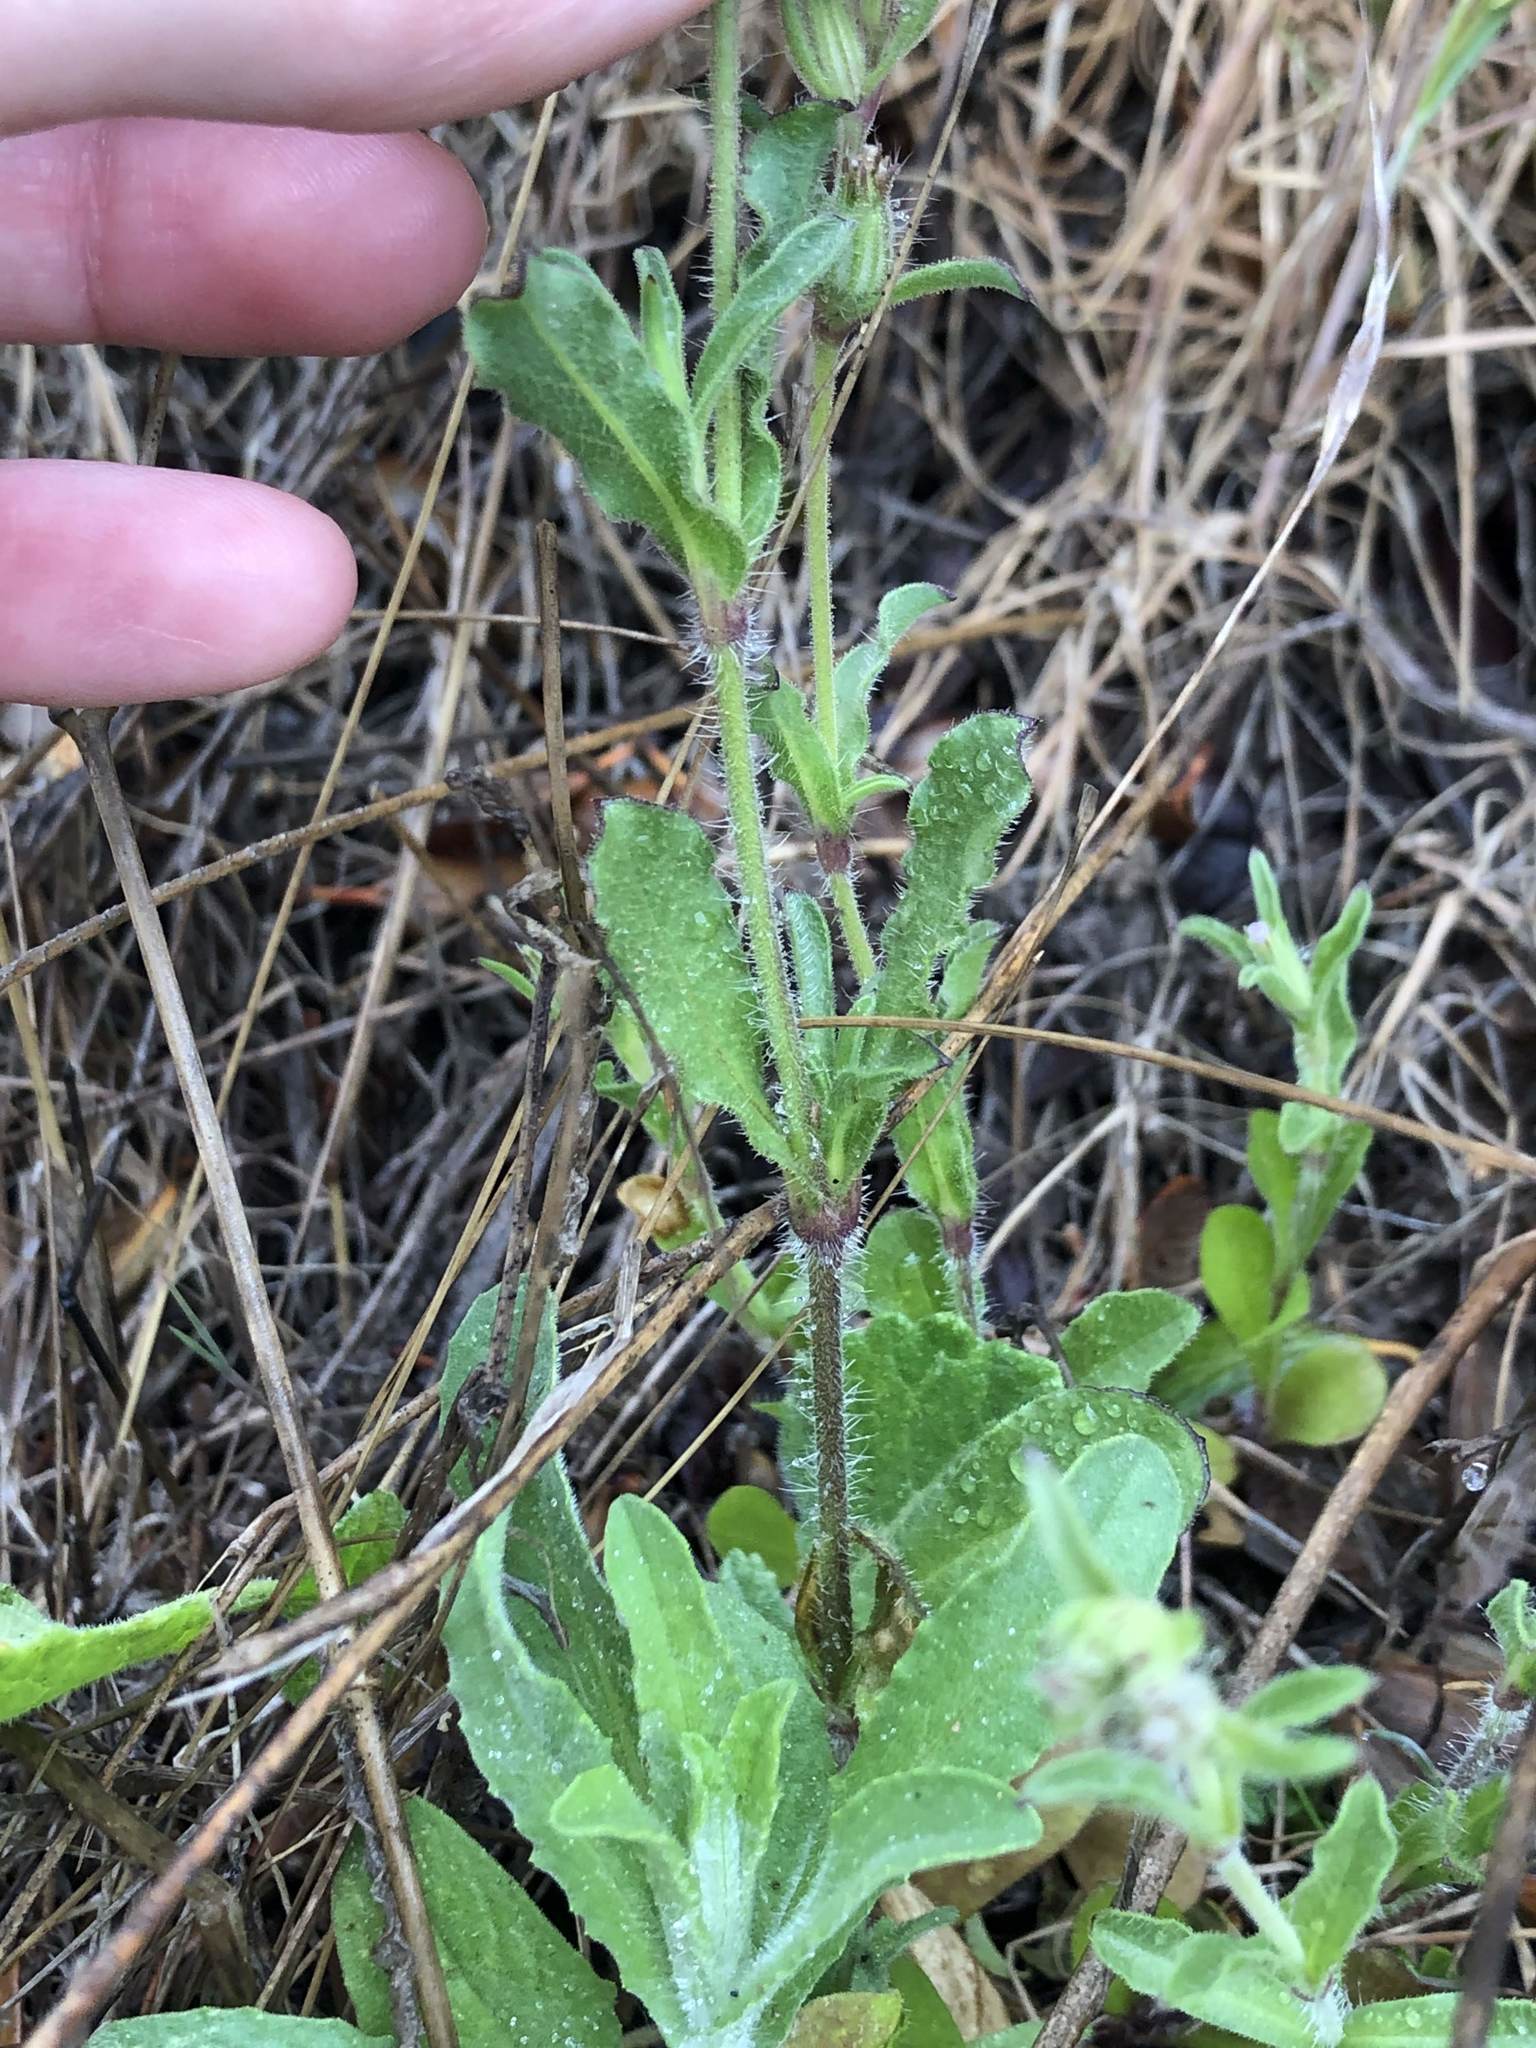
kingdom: Plantae
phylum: Tracheophyta
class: Magnoliopsida
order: Caryophyllales
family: Caryophyllaceae
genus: Silene
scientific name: Silene gallica
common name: Small-flowered catchfly
